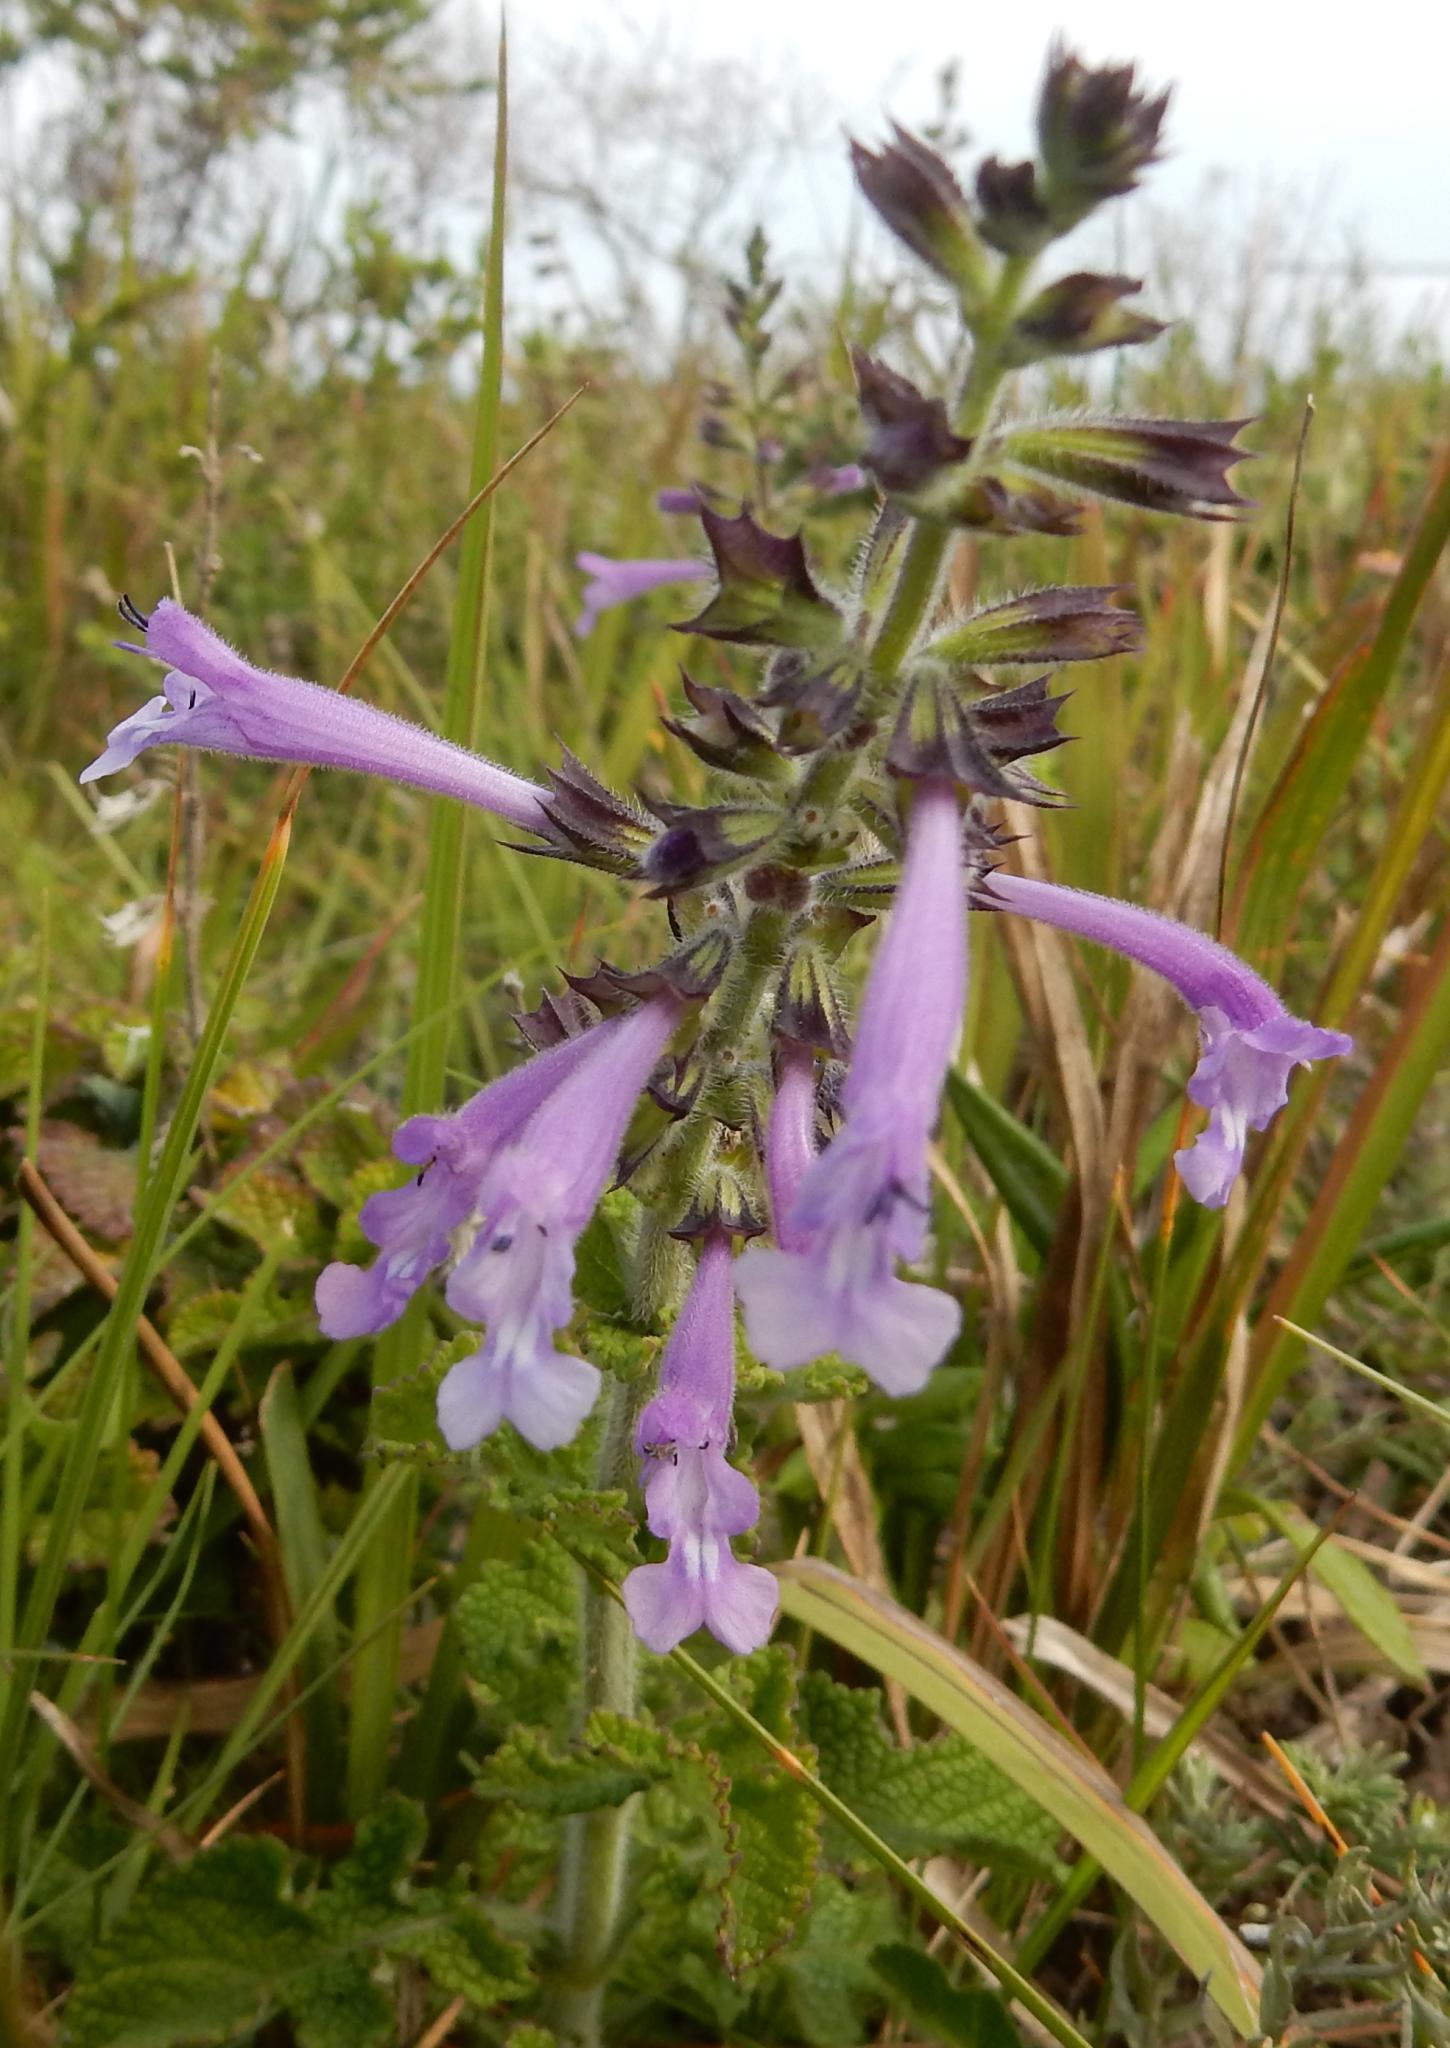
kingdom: Plantae
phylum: Tracheophyta
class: Magnoliopsida
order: Lamiales
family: Lamiaceae
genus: Salvia
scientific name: Salvia scabra
